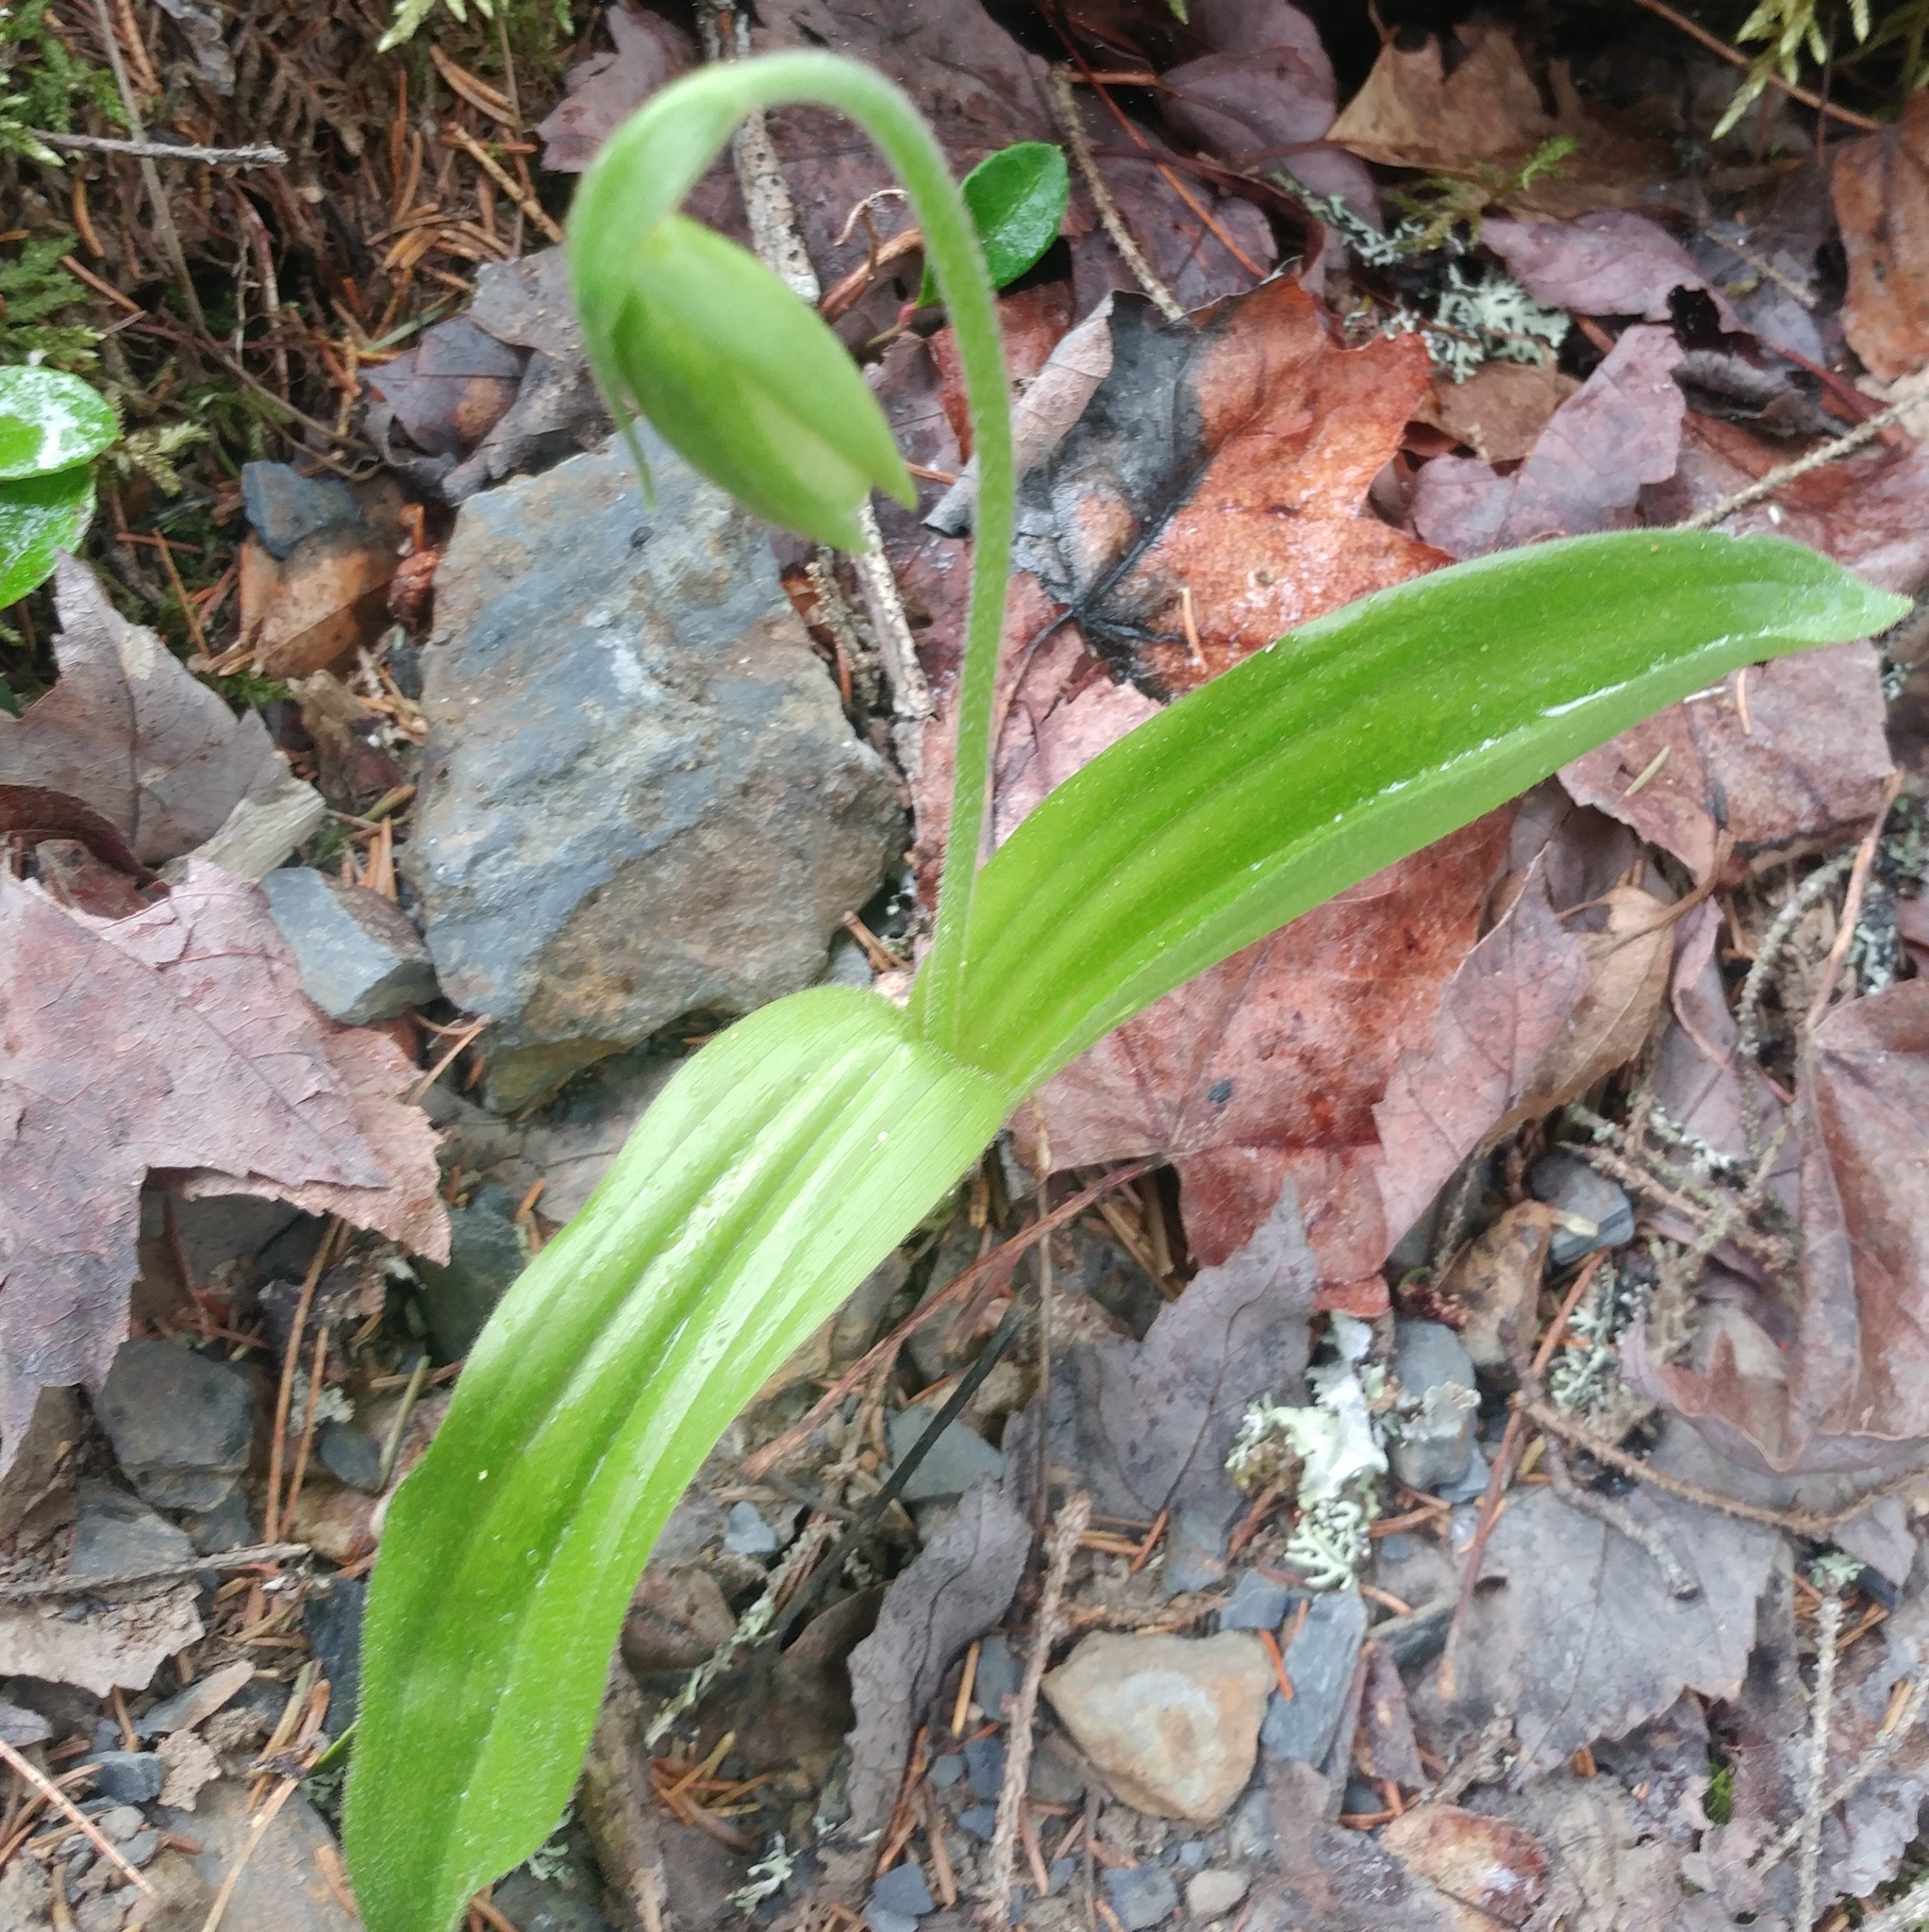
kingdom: Plantae
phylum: Tracheophyta
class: Liliopsida
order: Asparagales
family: Orchidaceae
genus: Cypripedium
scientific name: Cypripedium acaule
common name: Pink lady's-slipper
